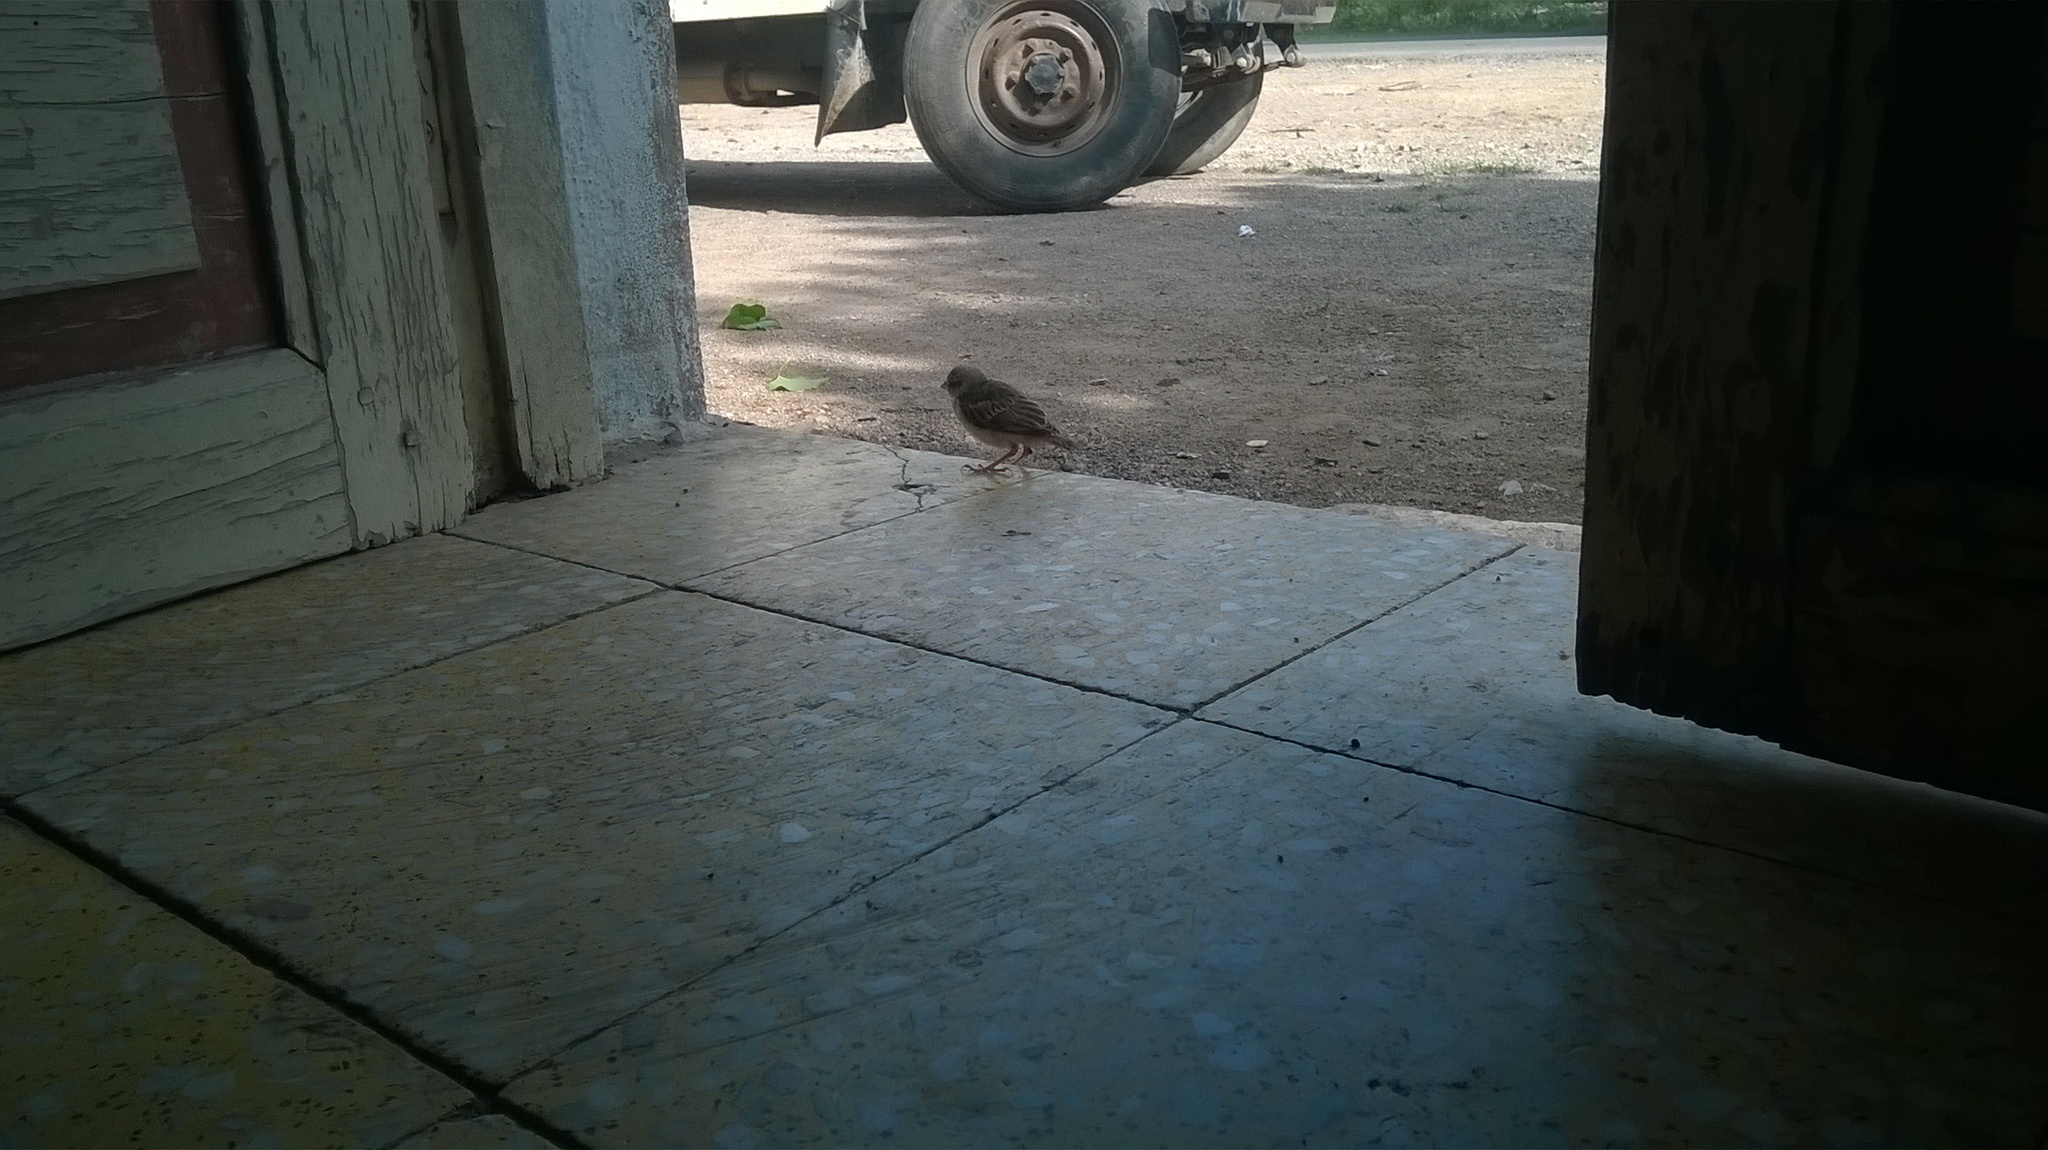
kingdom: Animalia
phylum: Chordata
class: Aves
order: Passeriformes
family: Passeridae
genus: Passer
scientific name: Passer domesticus
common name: House sparrow
